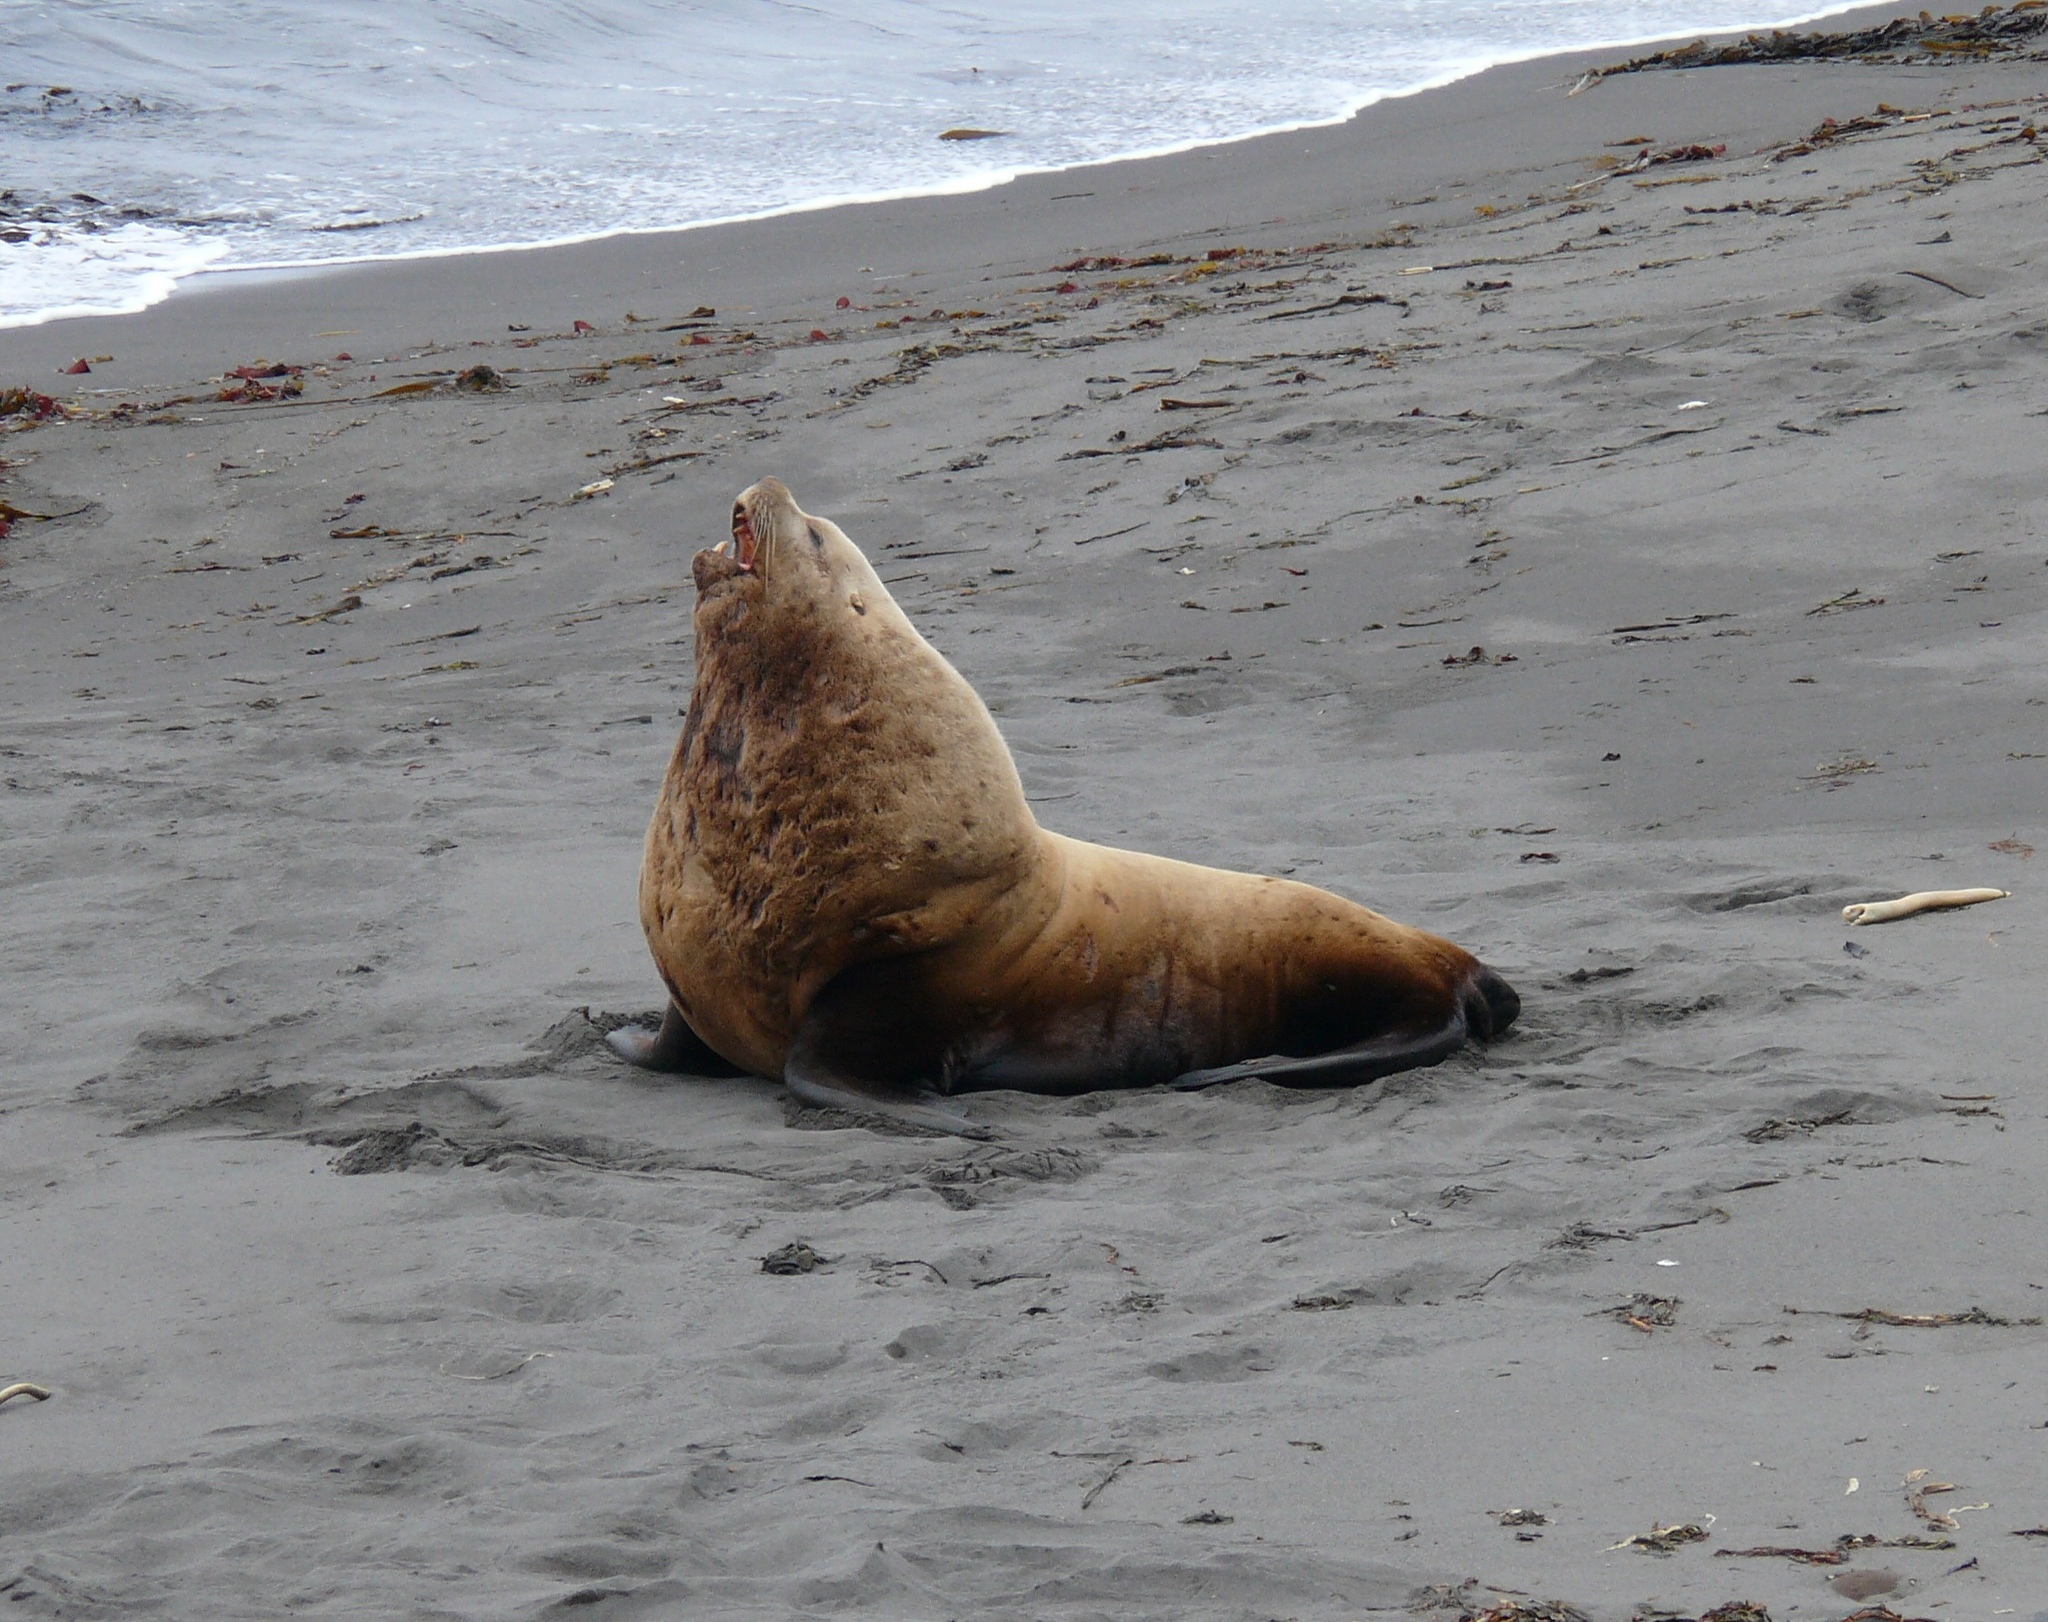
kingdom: Animalia
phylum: Chordata
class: Mammalia
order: Carnivora
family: Otariidae
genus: Eumetopias
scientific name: Eumetopias jubatus
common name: Steller sea lion
